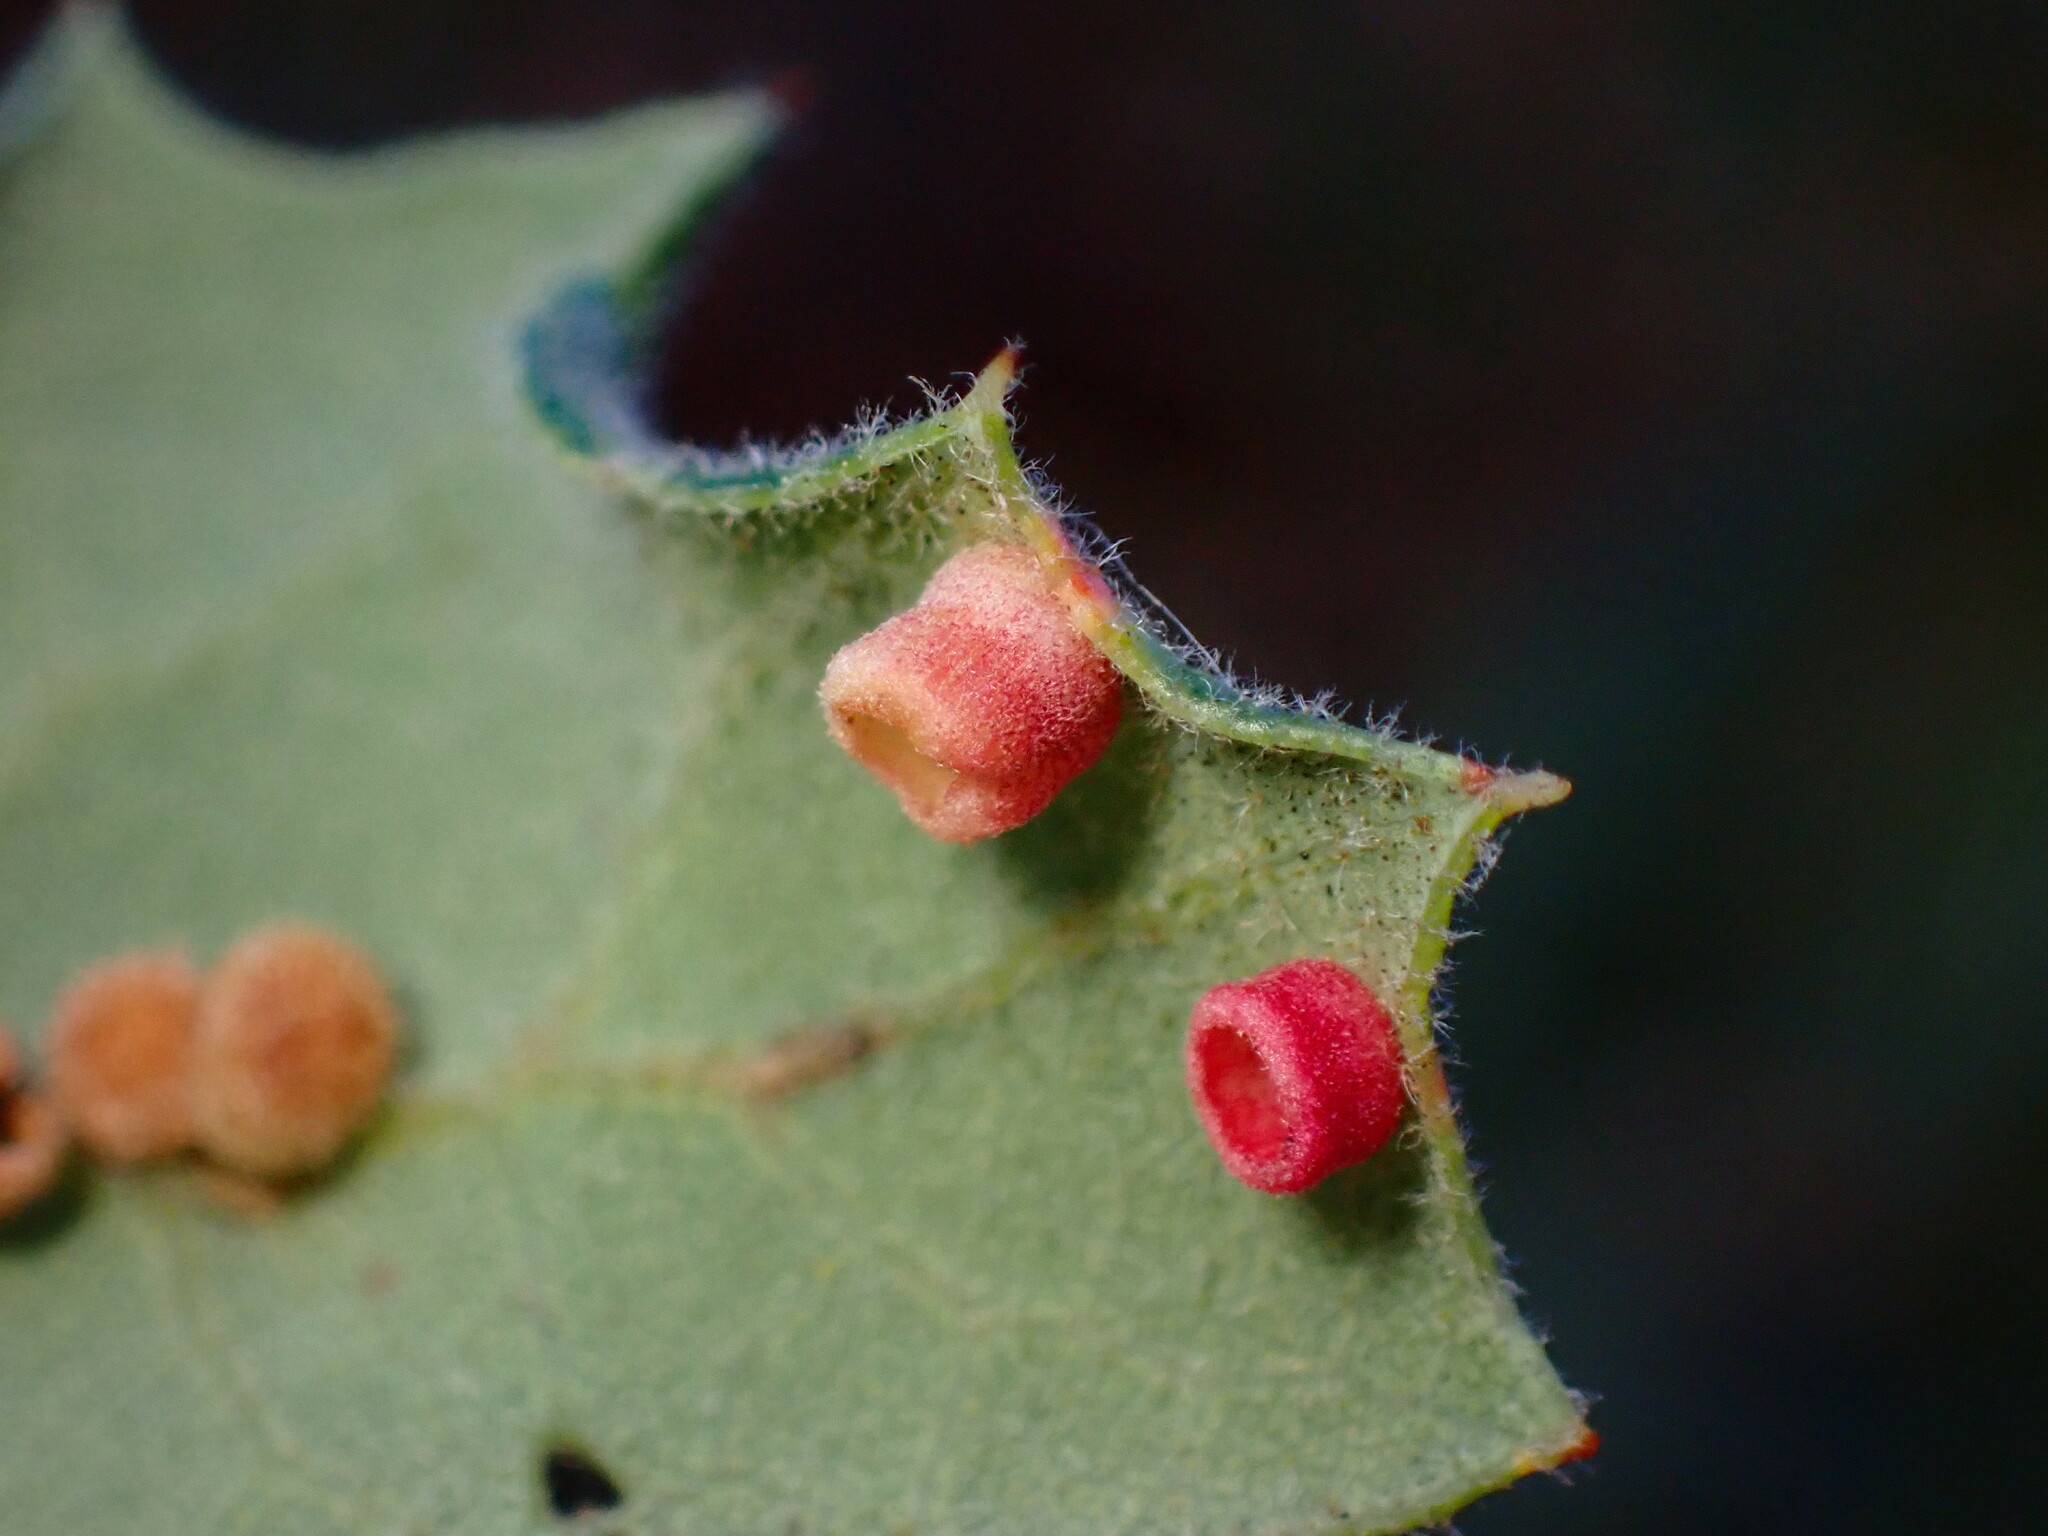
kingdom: Animalia
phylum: Arthropoda
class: Insecta
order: Hymenoptera
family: Cynipidae
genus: Phylloteras
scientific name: Phylloteras
